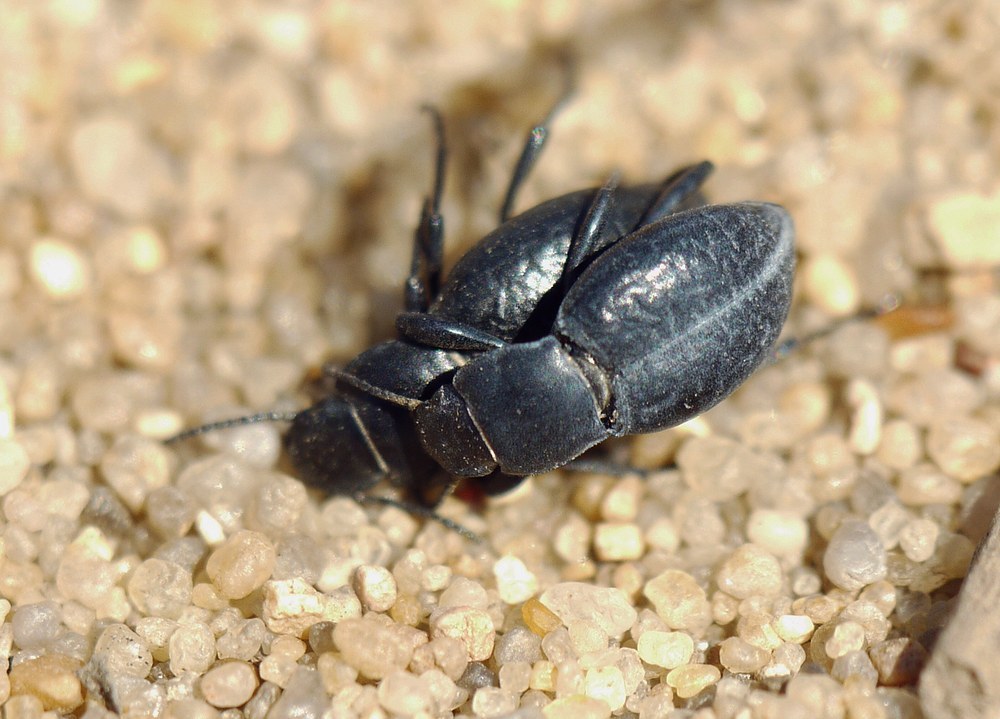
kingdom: Animalia
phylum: Arthropoda
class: Insecta
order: Coleoptera
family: Tenebrionidae
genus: Anatolica
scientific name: Anatolica abbreviata
